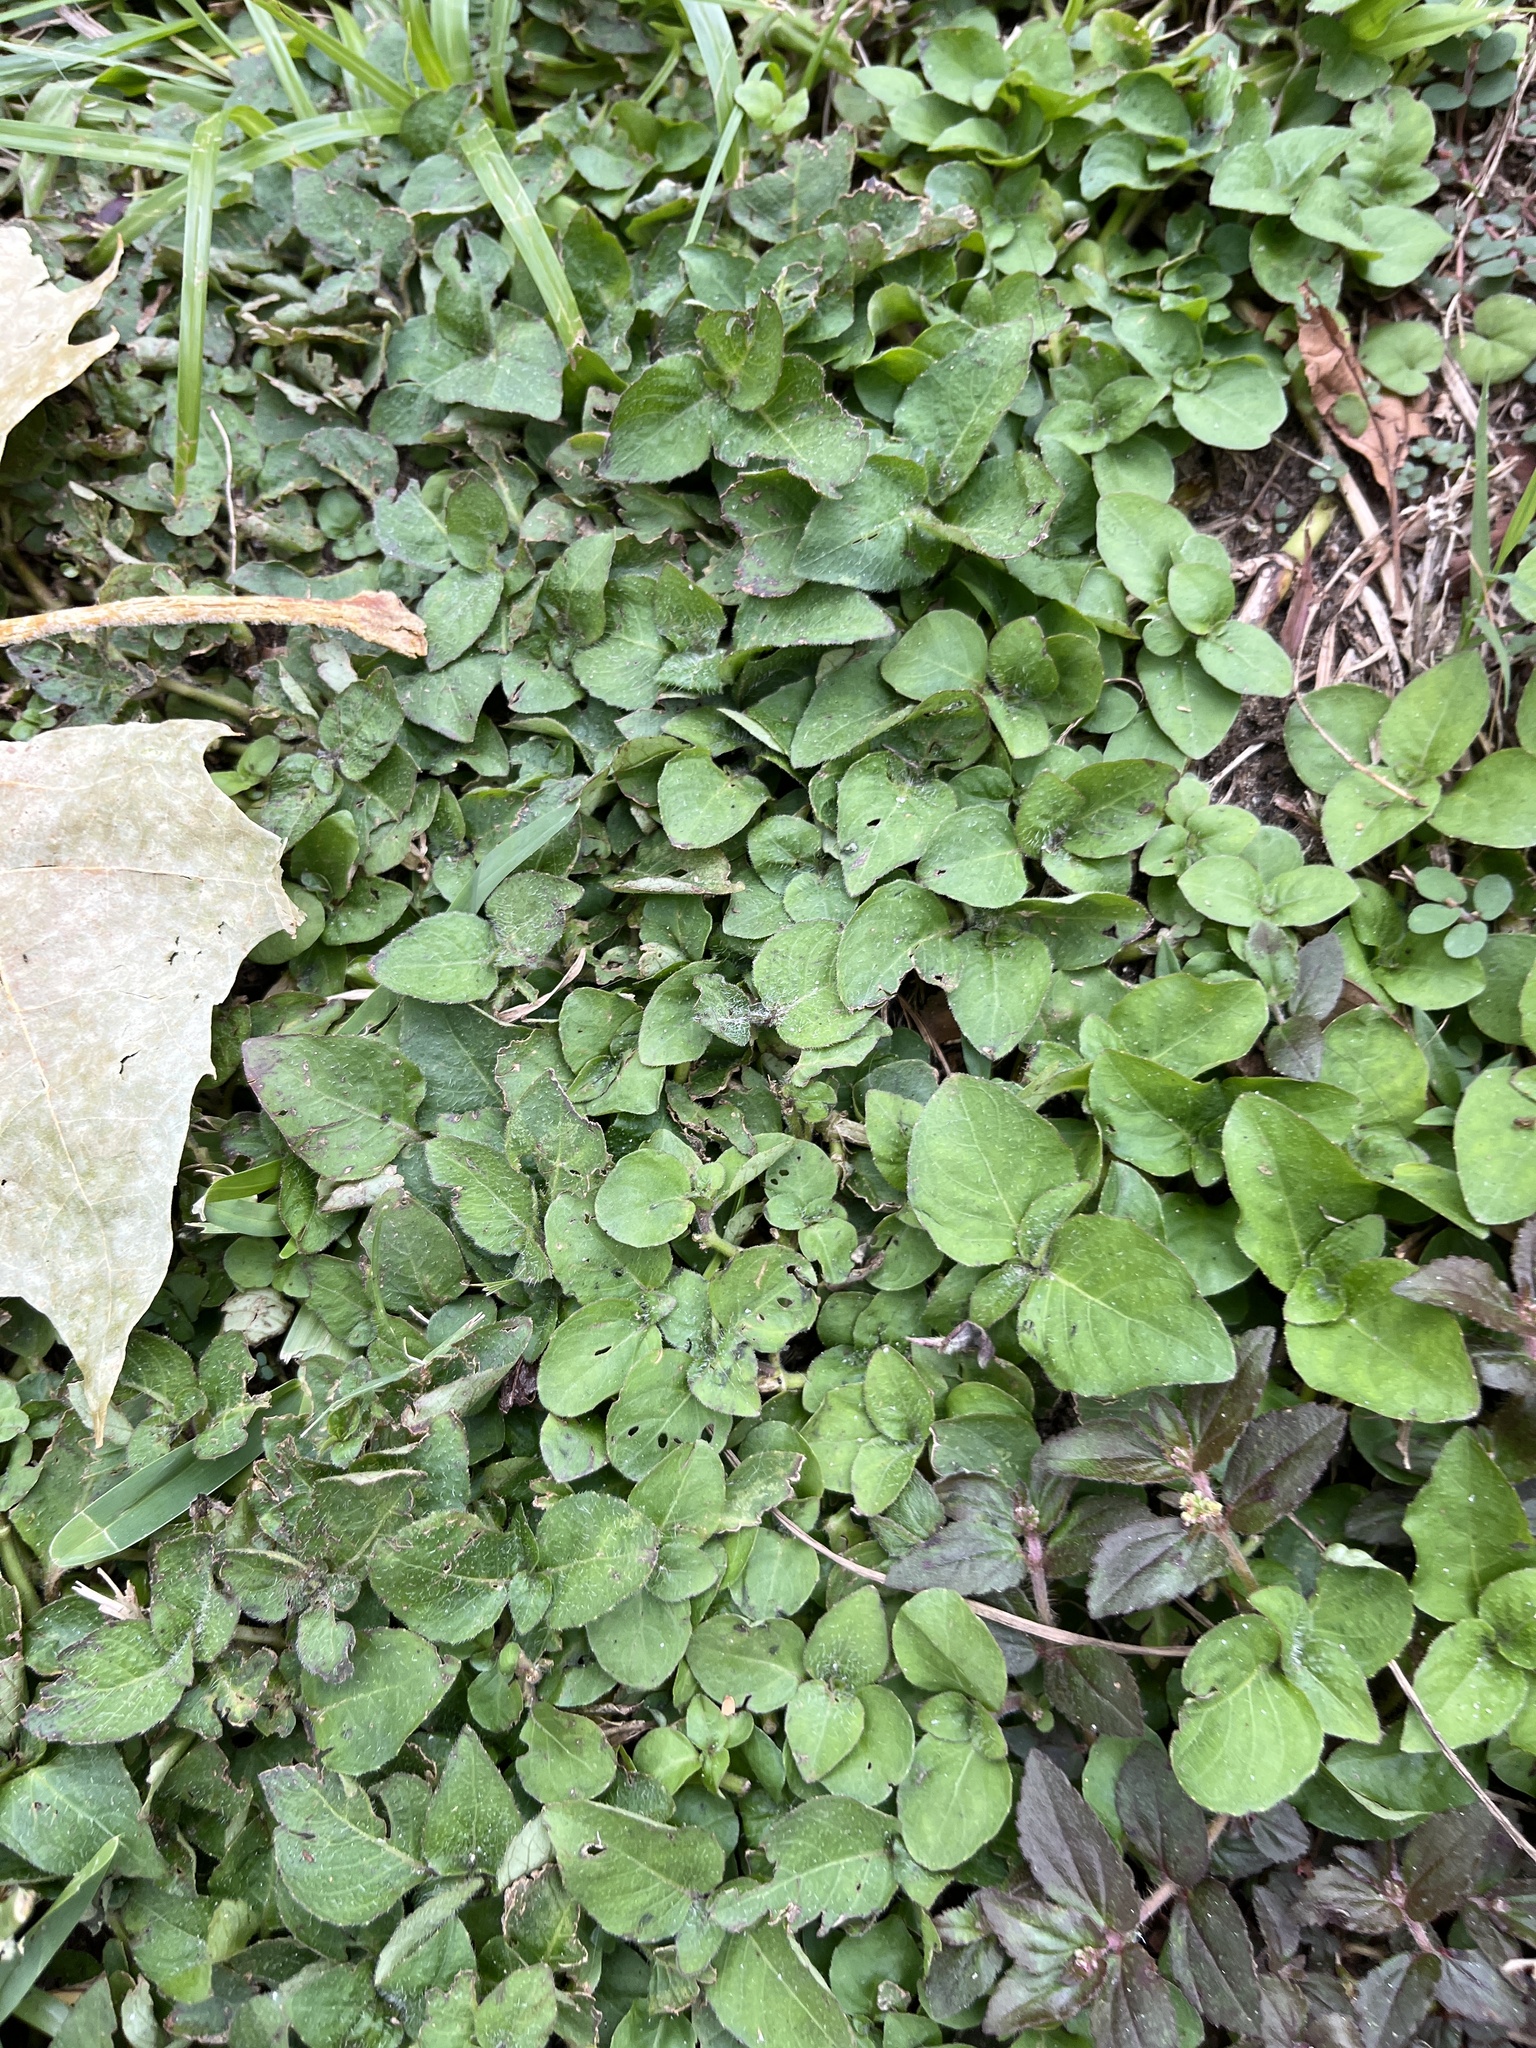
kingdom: Plantae
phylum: Tracheophyta
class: Magnoliopsida
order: Asterales
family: Asteraceae
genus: Calyptocarpus
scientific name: Calyptocarpus vialis
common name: Straggler daisy
